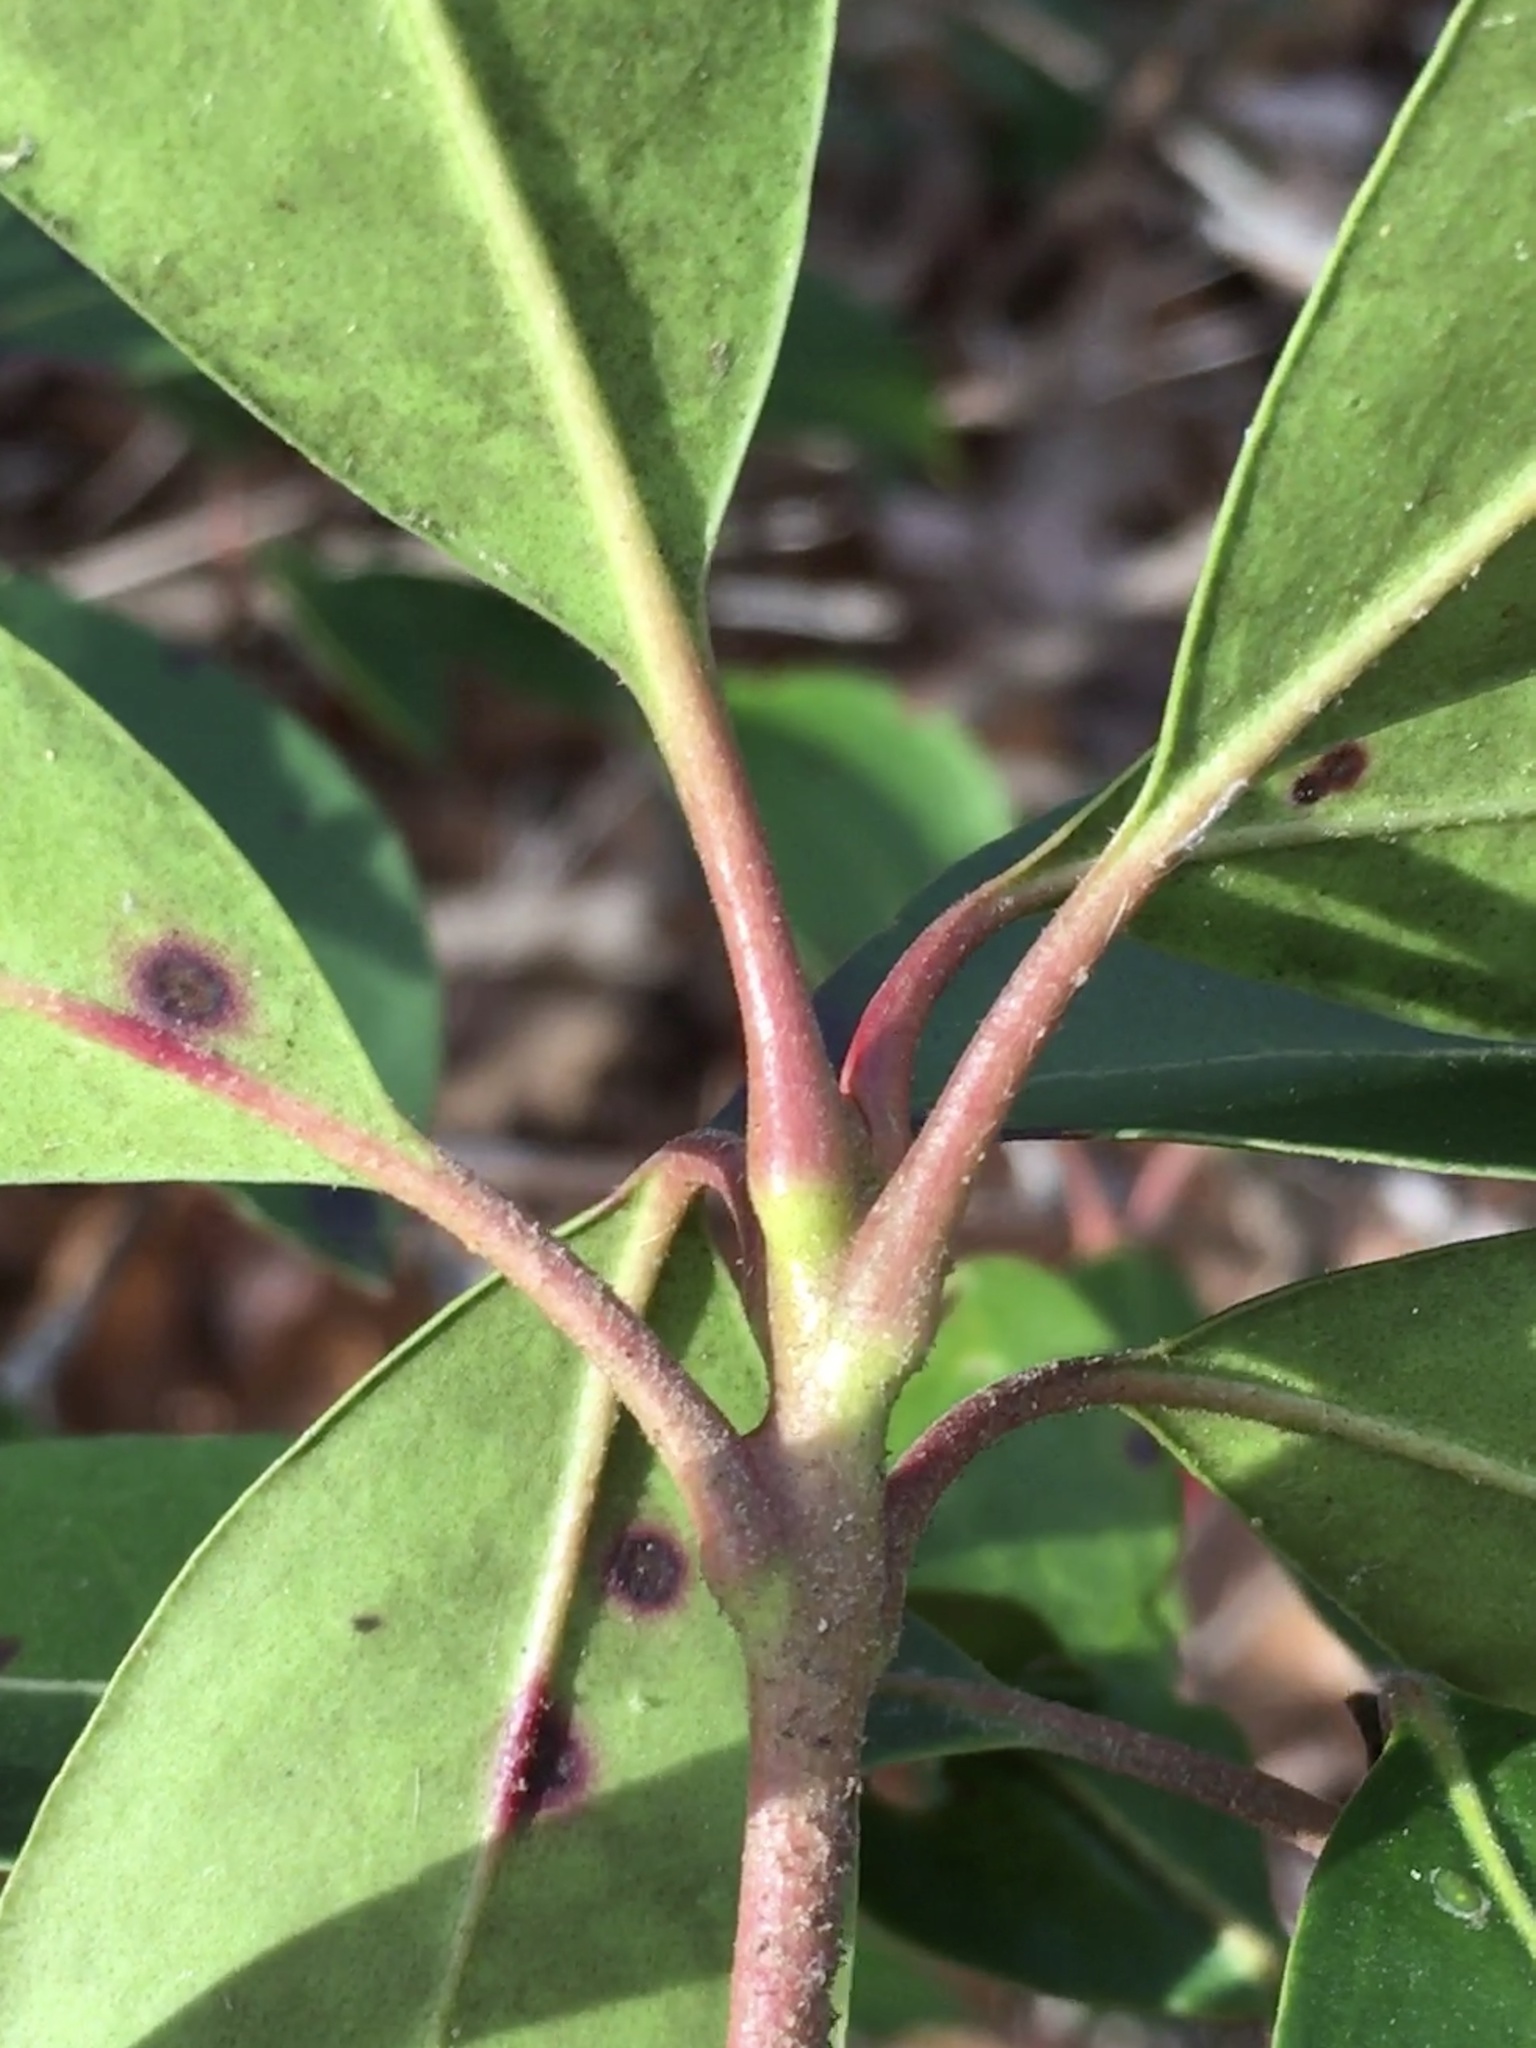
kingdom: Plantae
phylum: Tracheophyta
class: Magnoliopsida
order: Ericales
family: Ericaceae
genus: Kalmia
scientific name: Kalmia latifolia
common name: Mountain-laurel
